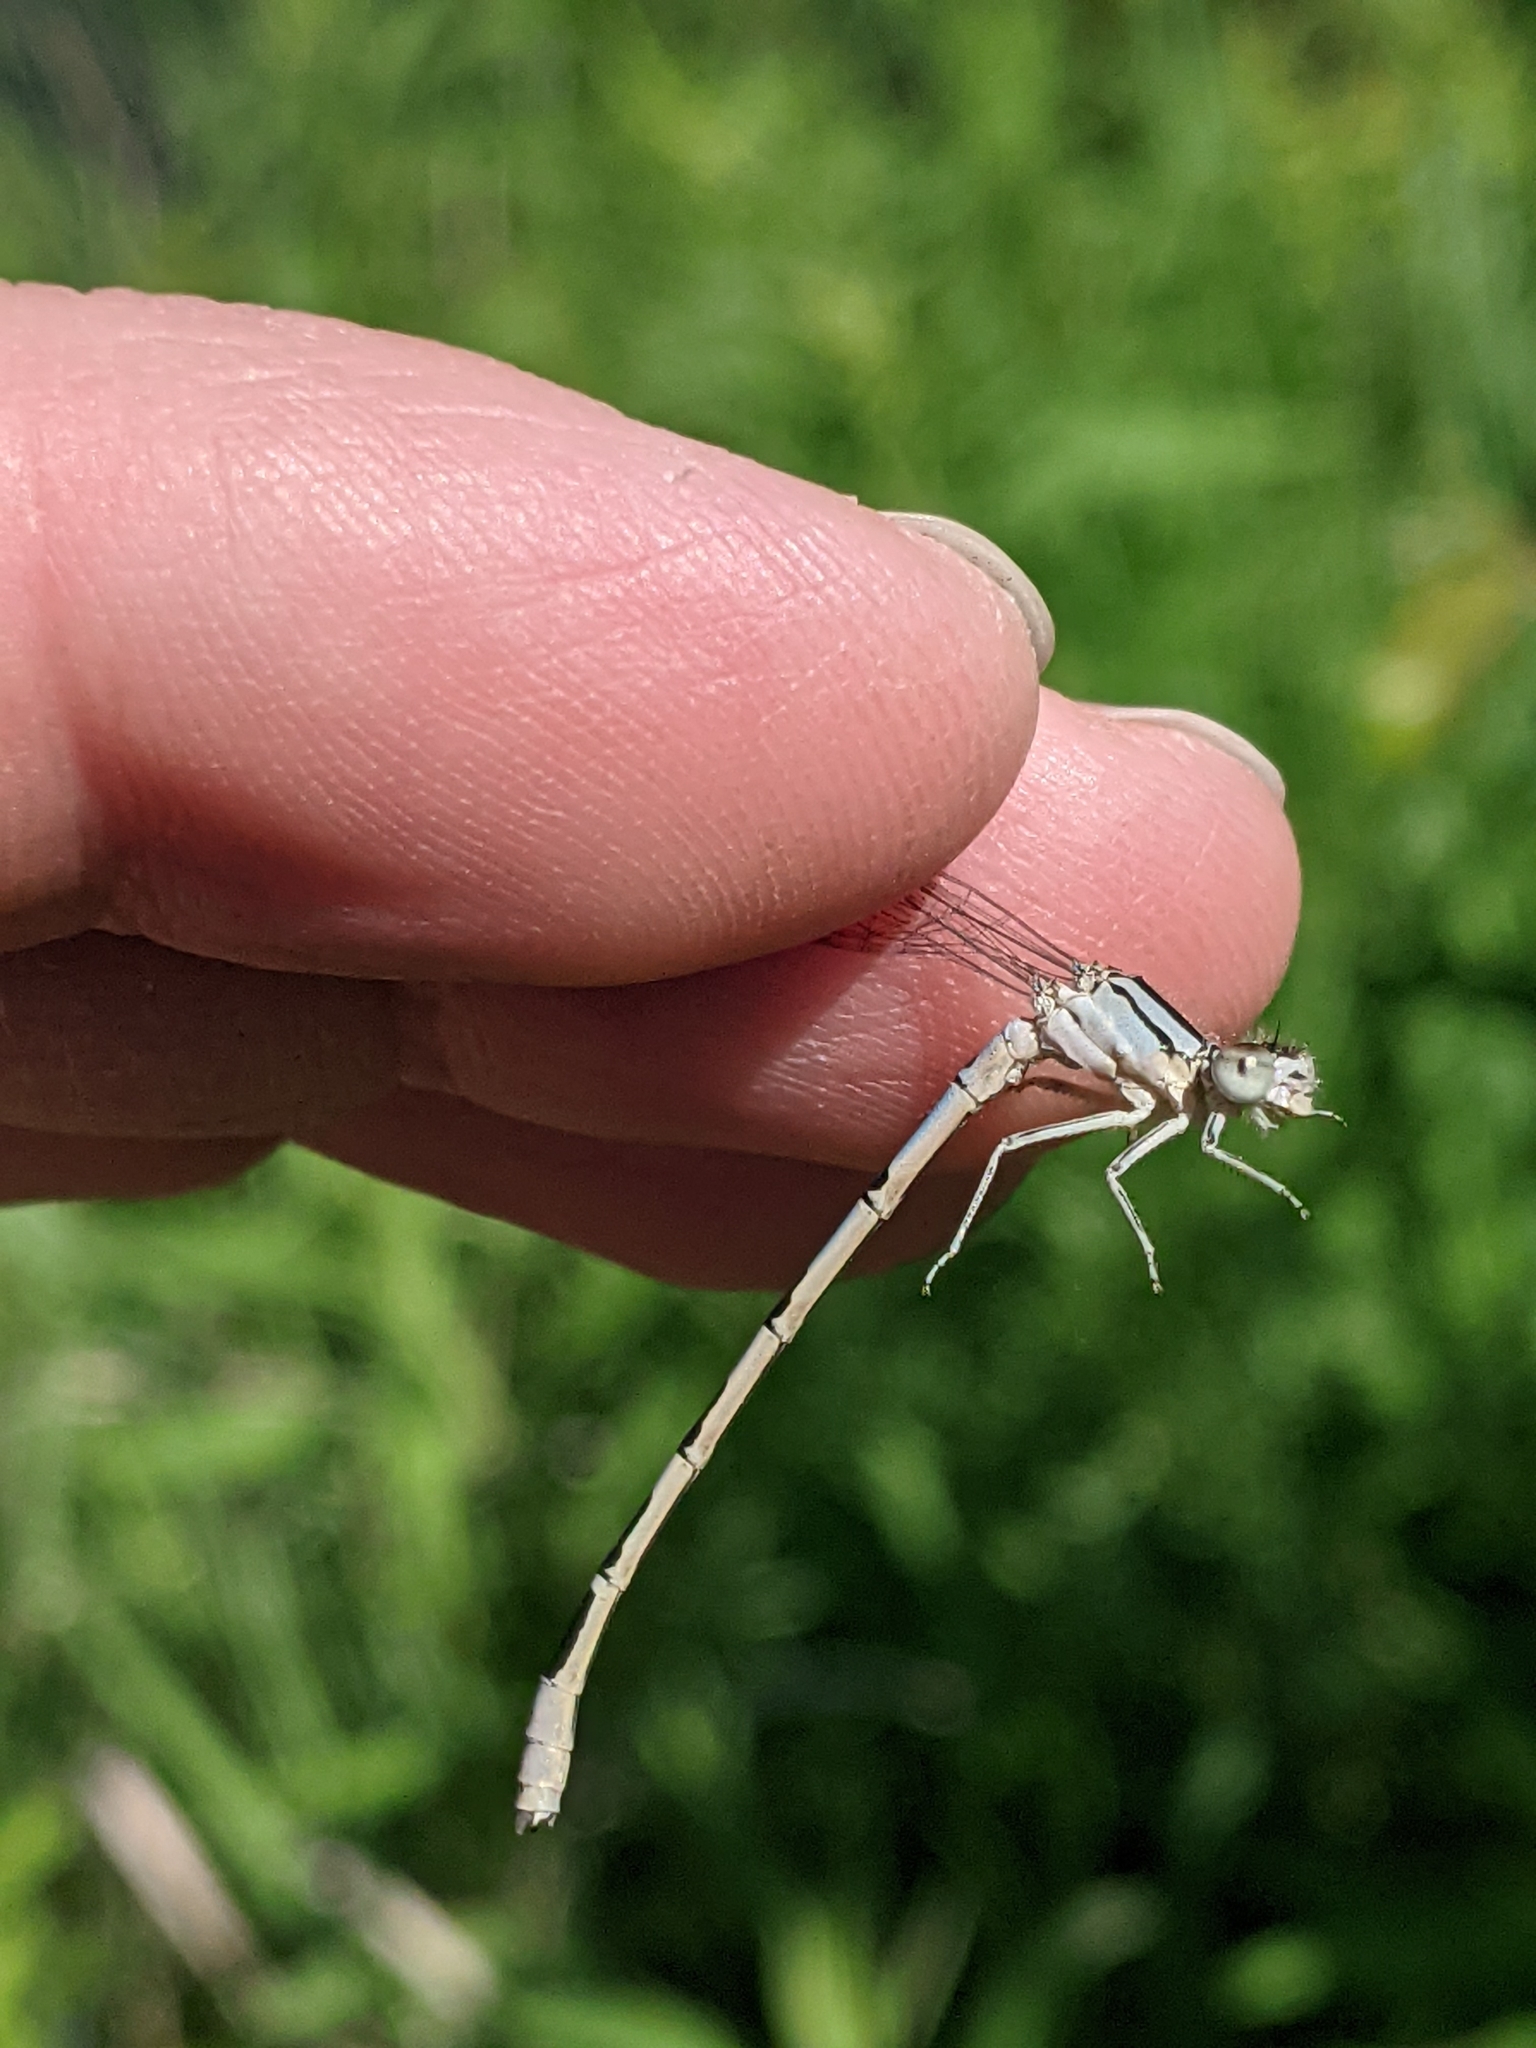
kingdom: Animalia
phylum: Arthropoda
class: Insecta
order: Odonata
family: Coenagrionidae
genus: Enallagma
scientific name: Enallagma civile
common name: Damselfly
